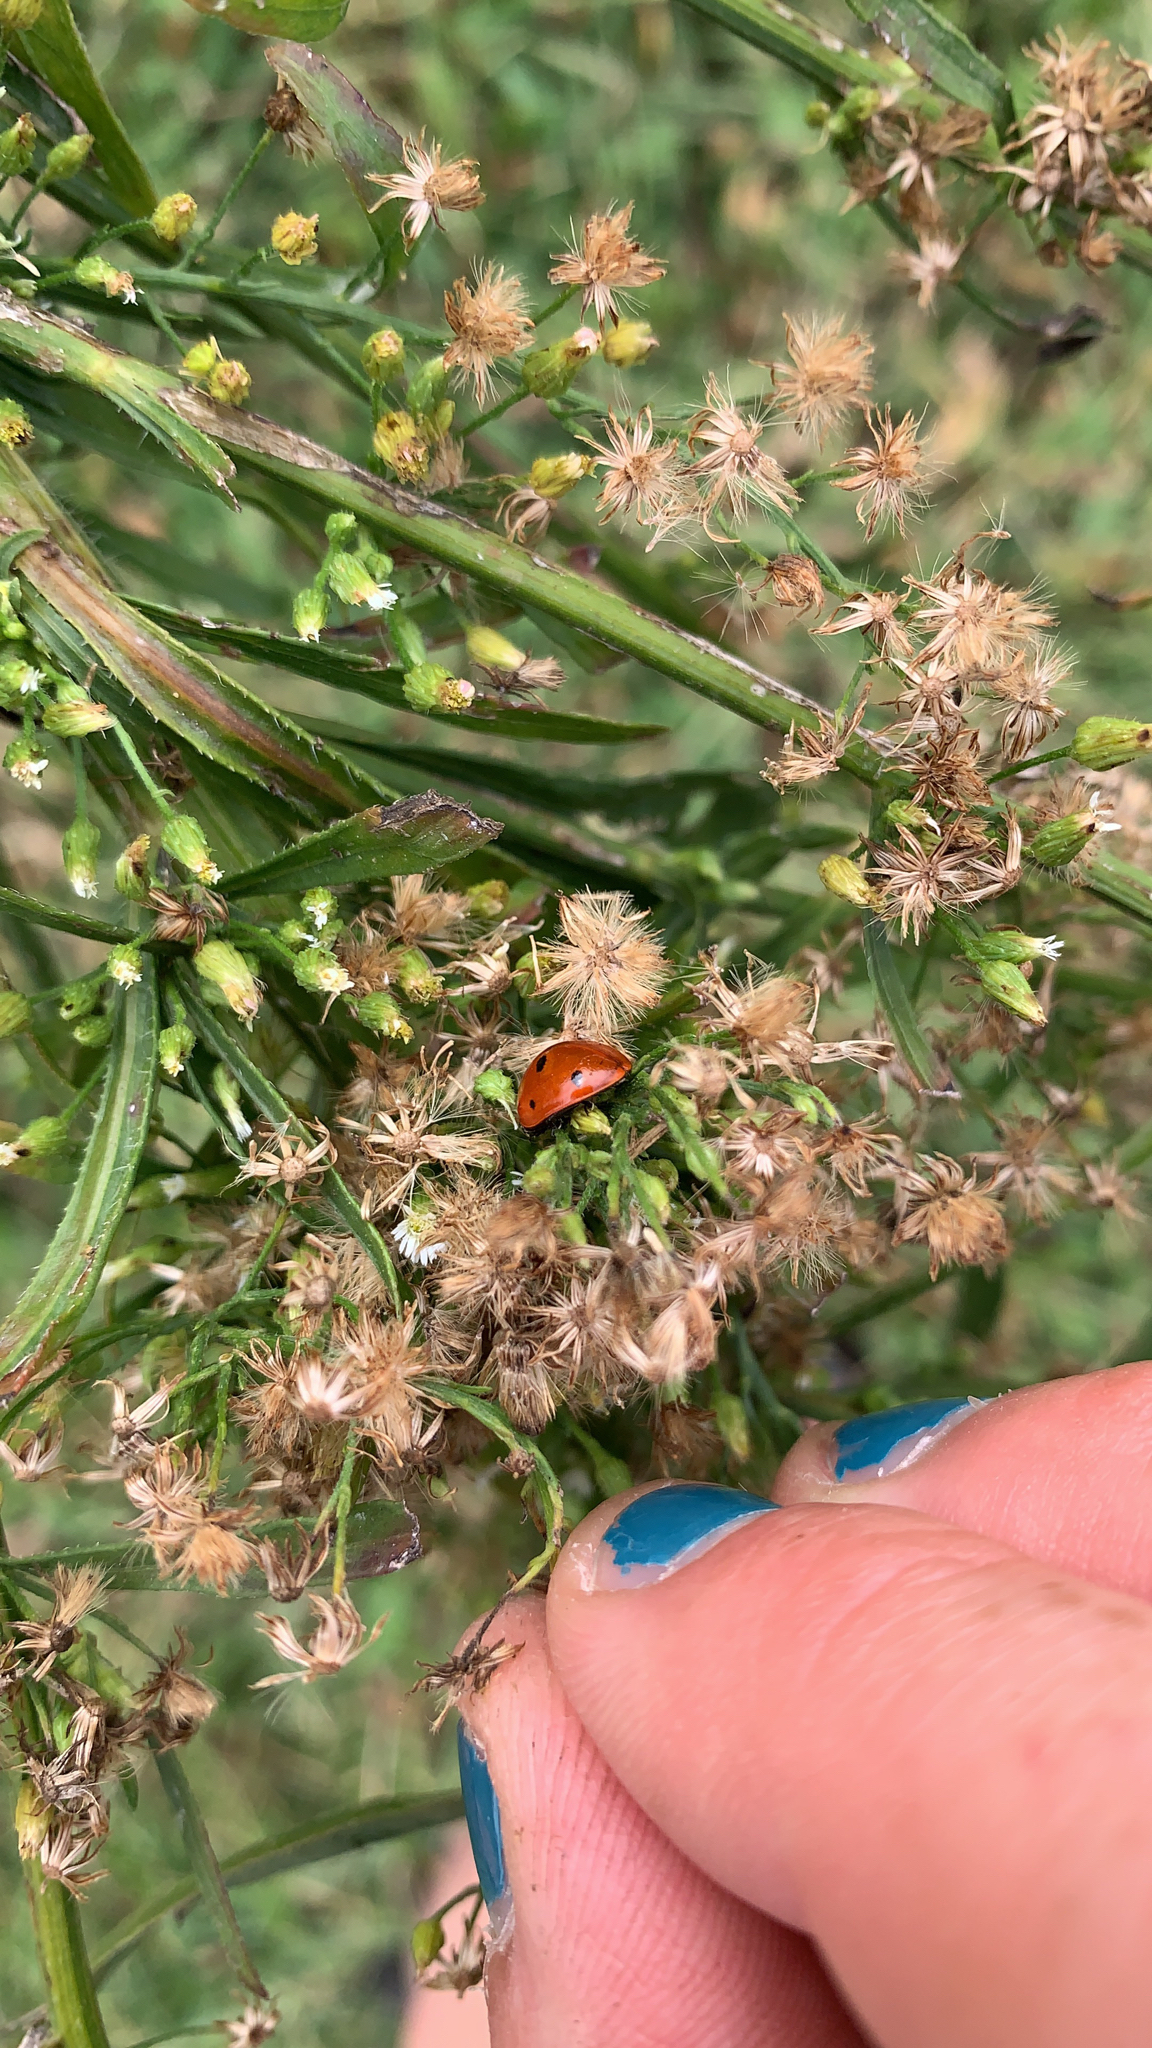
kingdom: Animalia
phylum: Arthropoda
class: Insecta
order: Coleoptera
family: Coccinellidae
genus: Coccinella
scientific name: Coccinella septempunctata
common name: Sevenspotted lady beetle
